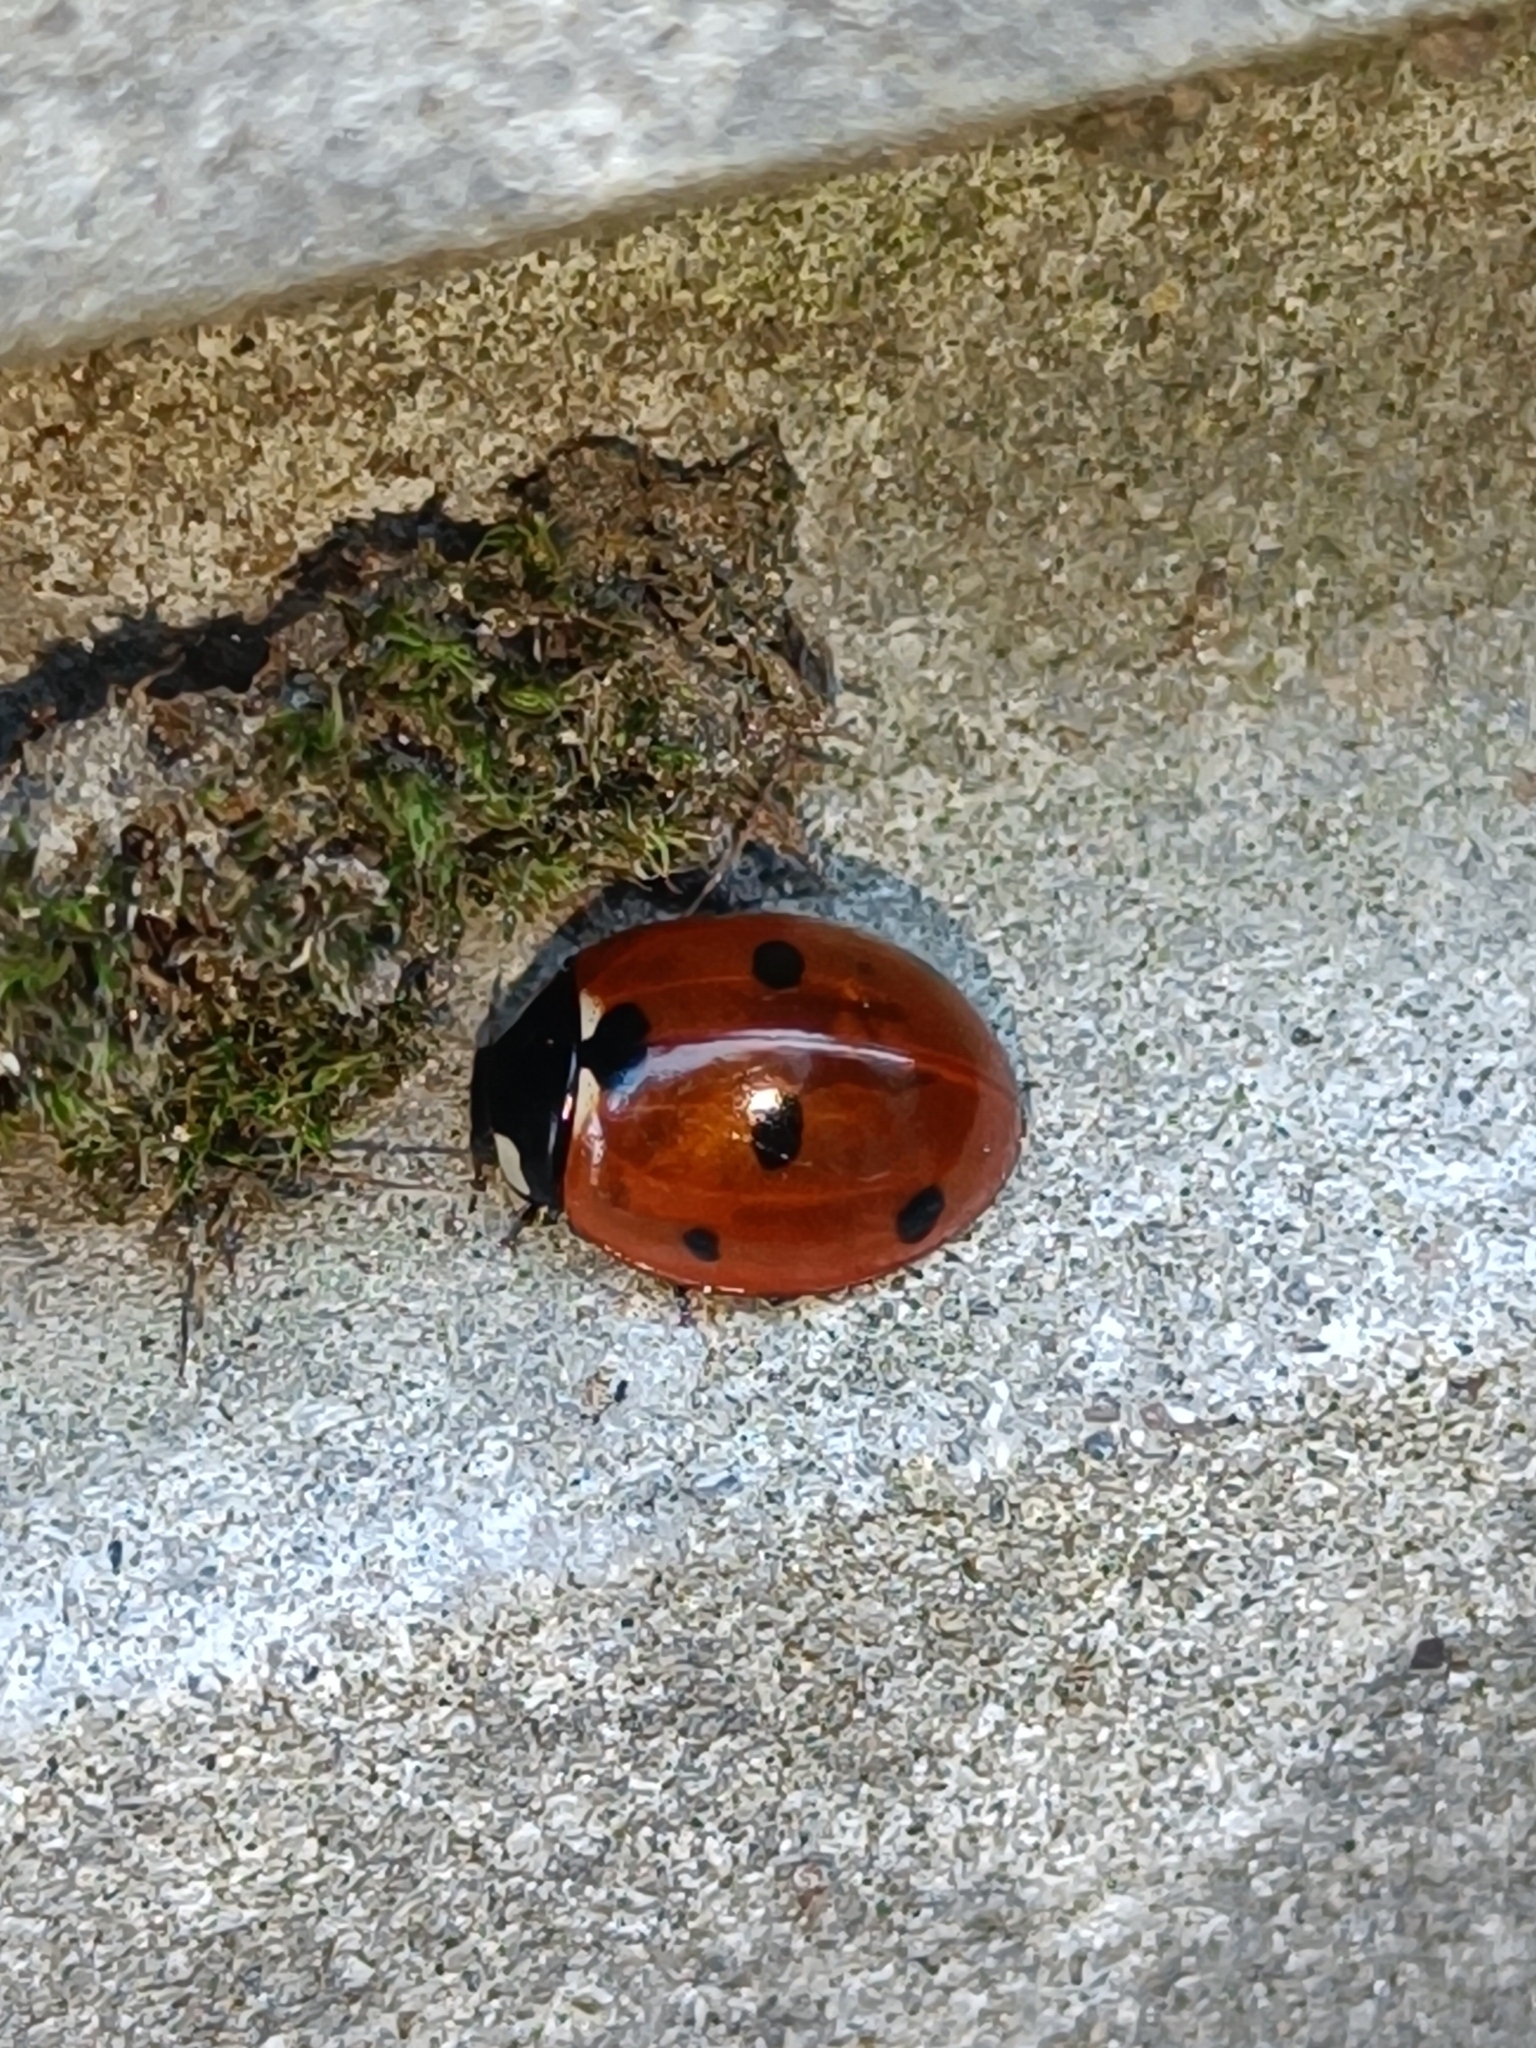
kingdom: Animalia
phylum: Arthropoda
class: Insecta
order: Coleoptera
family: Coccinellidae
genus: Coccinella
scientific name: Coccinella septempunctata
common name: Sevenspotted lady beetle
